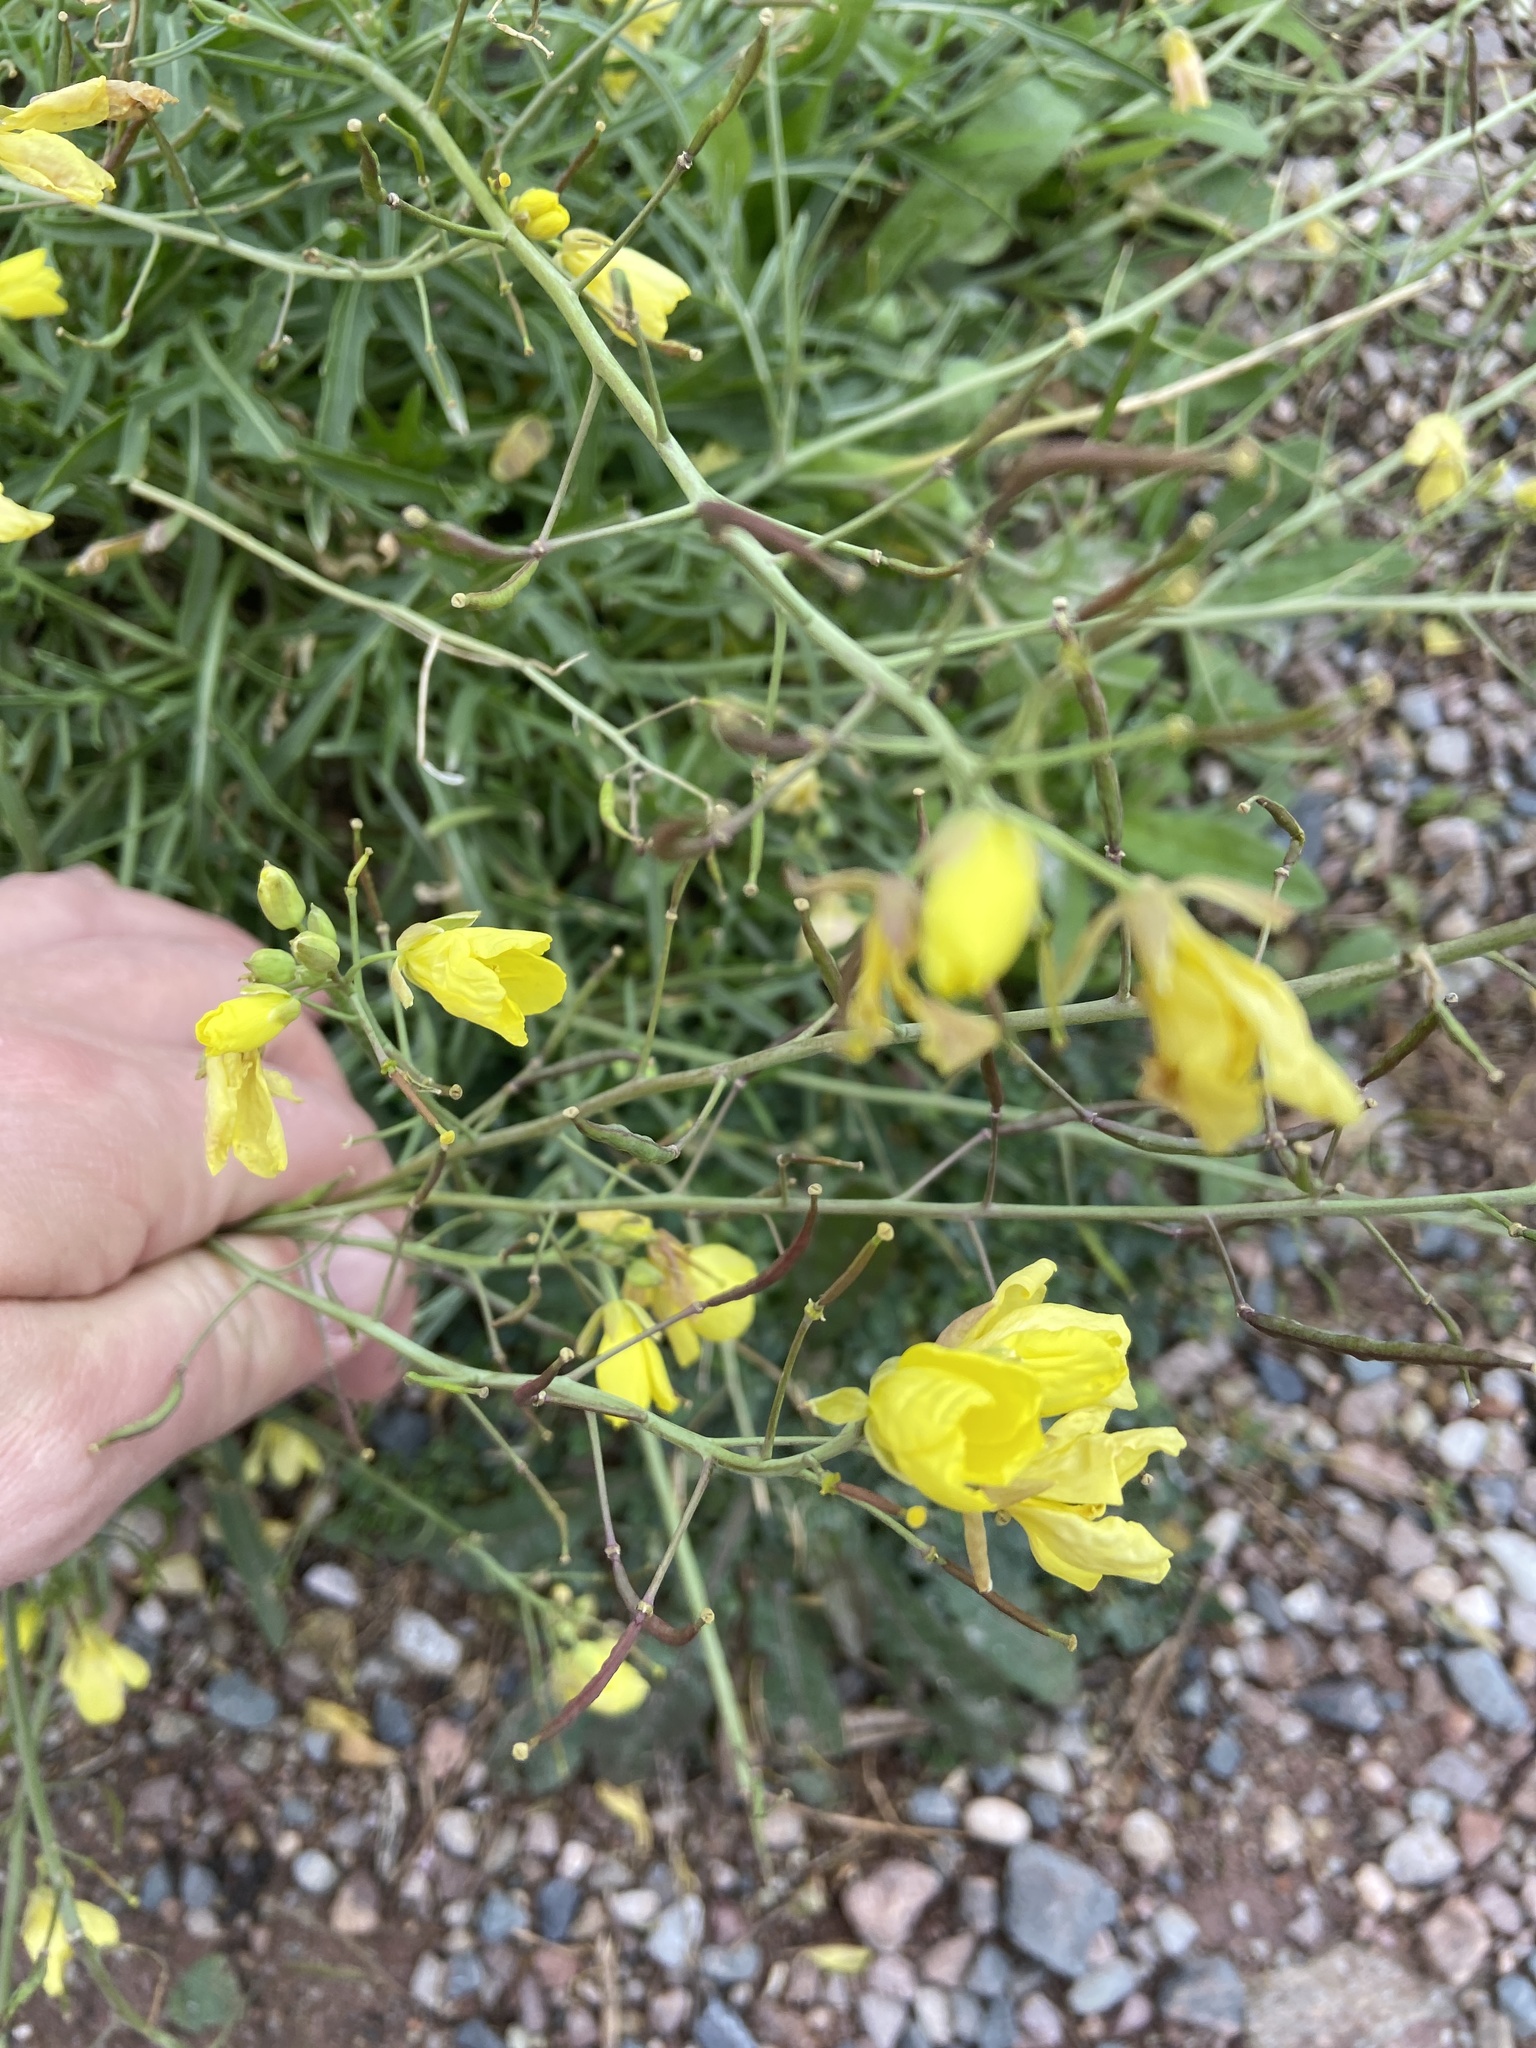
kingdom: Plantae
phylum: Tracheophyta
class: Magnoliopsida
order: Brassicales
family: Brassicaceae
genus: Diplotaxis
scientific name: Diplotaxis tenuifolia
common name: Perennial wall-rocket
